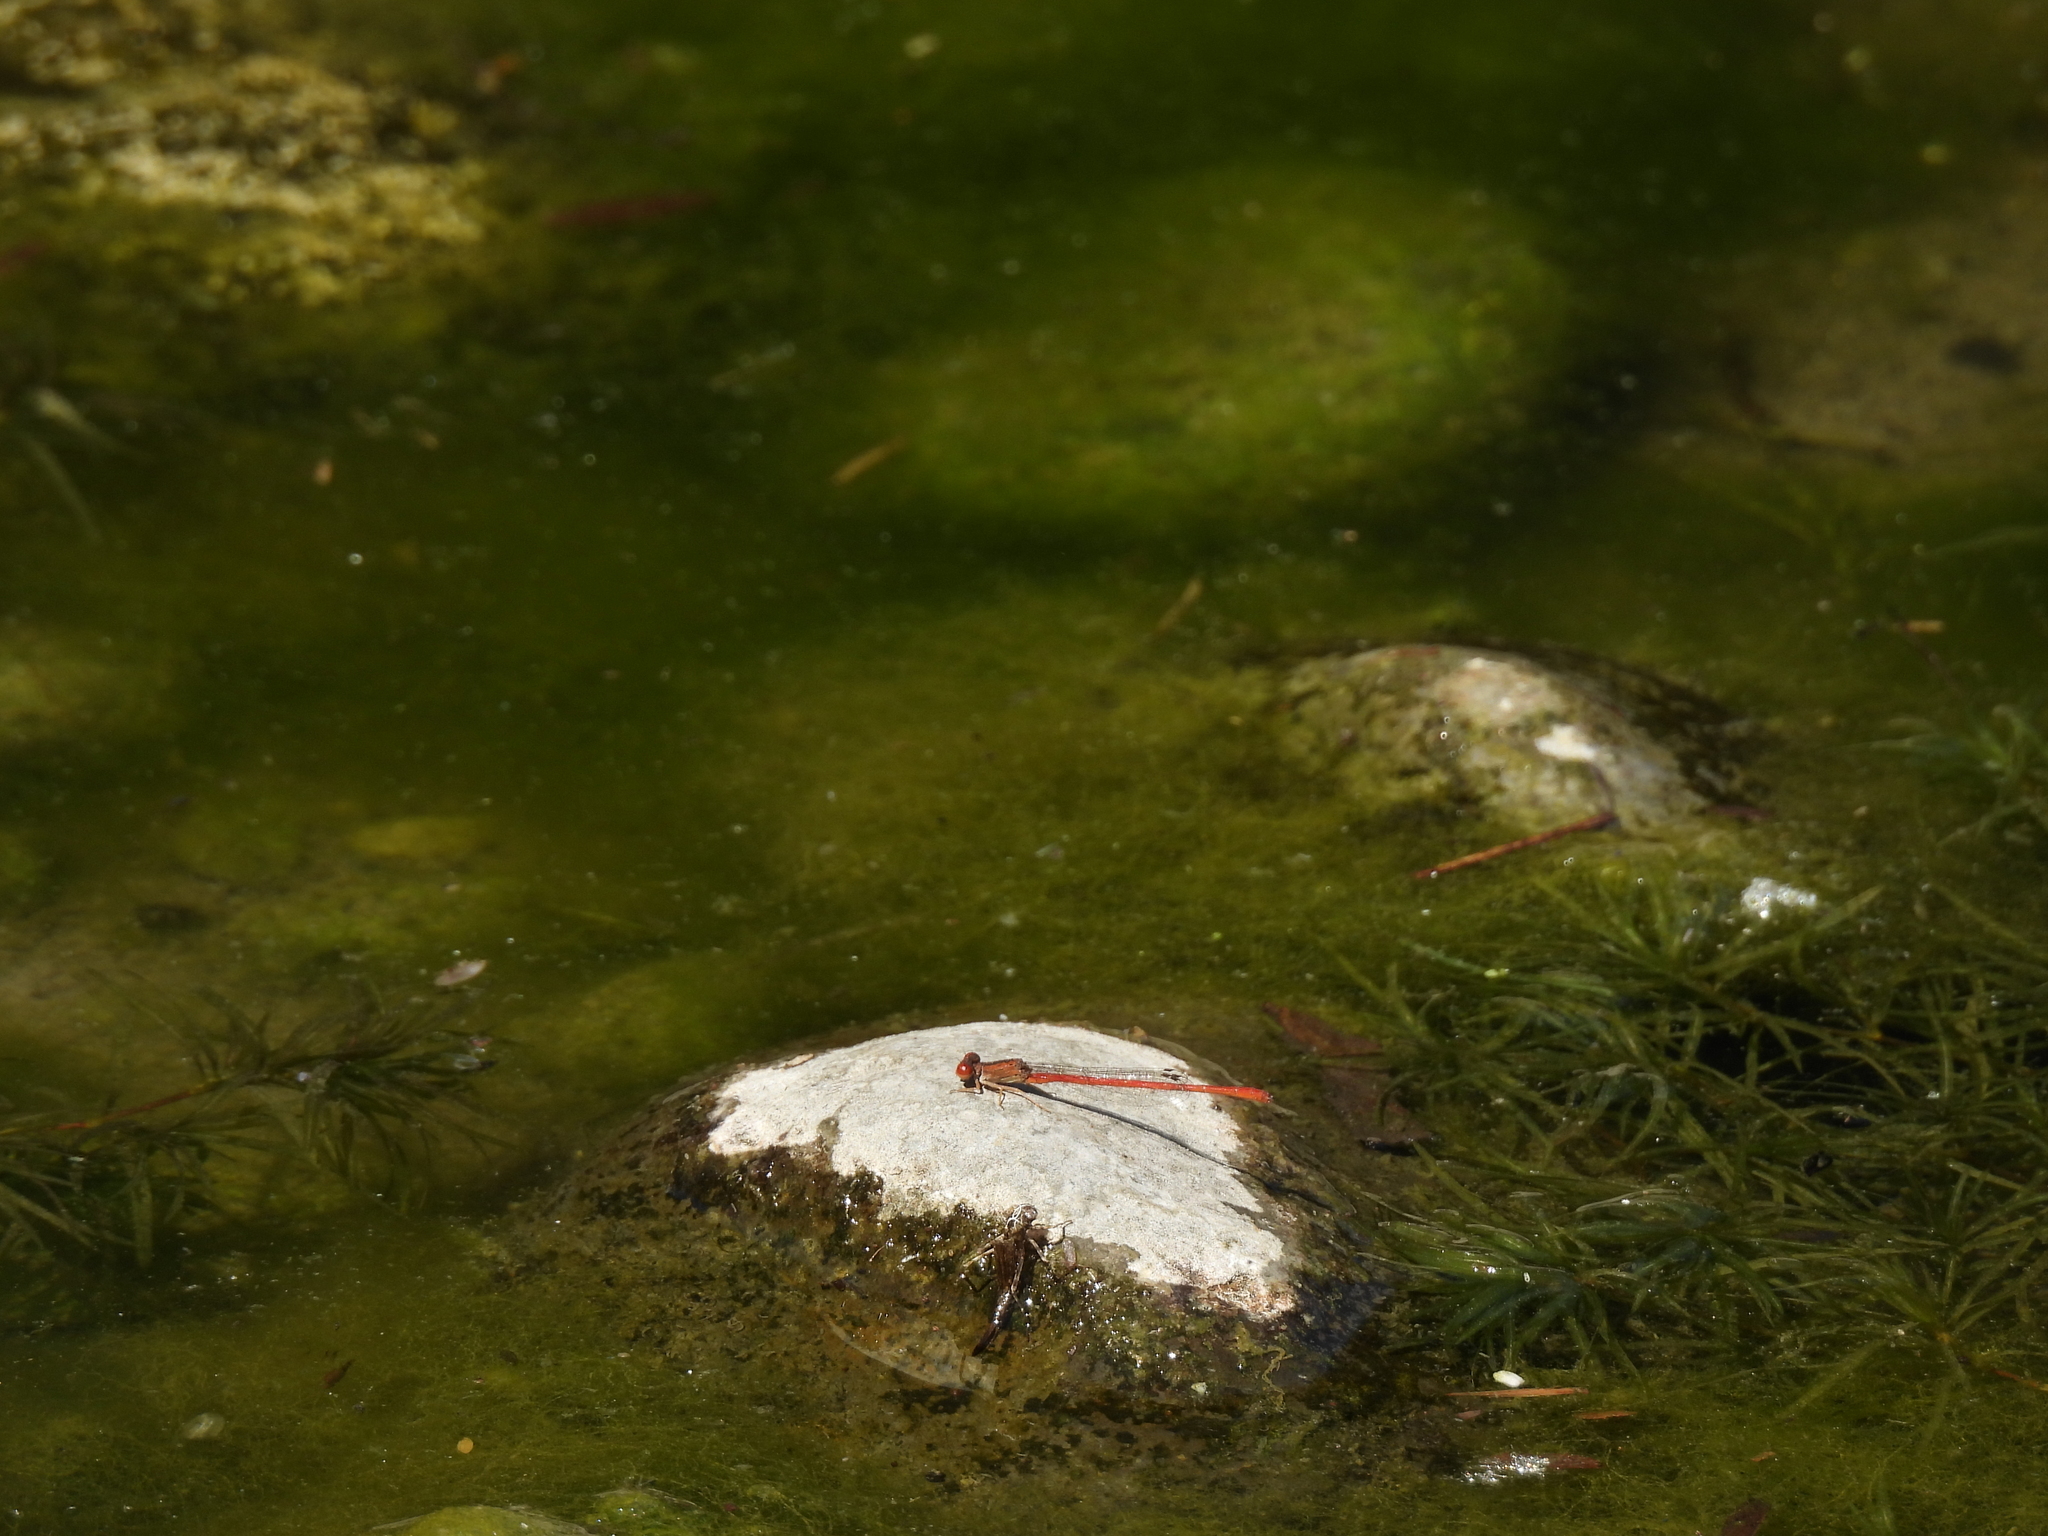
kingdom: Animalia
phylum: Arthropoda
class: Insecta
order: Odonata
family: Coenagrionidae
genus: Telebasis
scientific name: Telebasis salva
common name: Desert firetail
